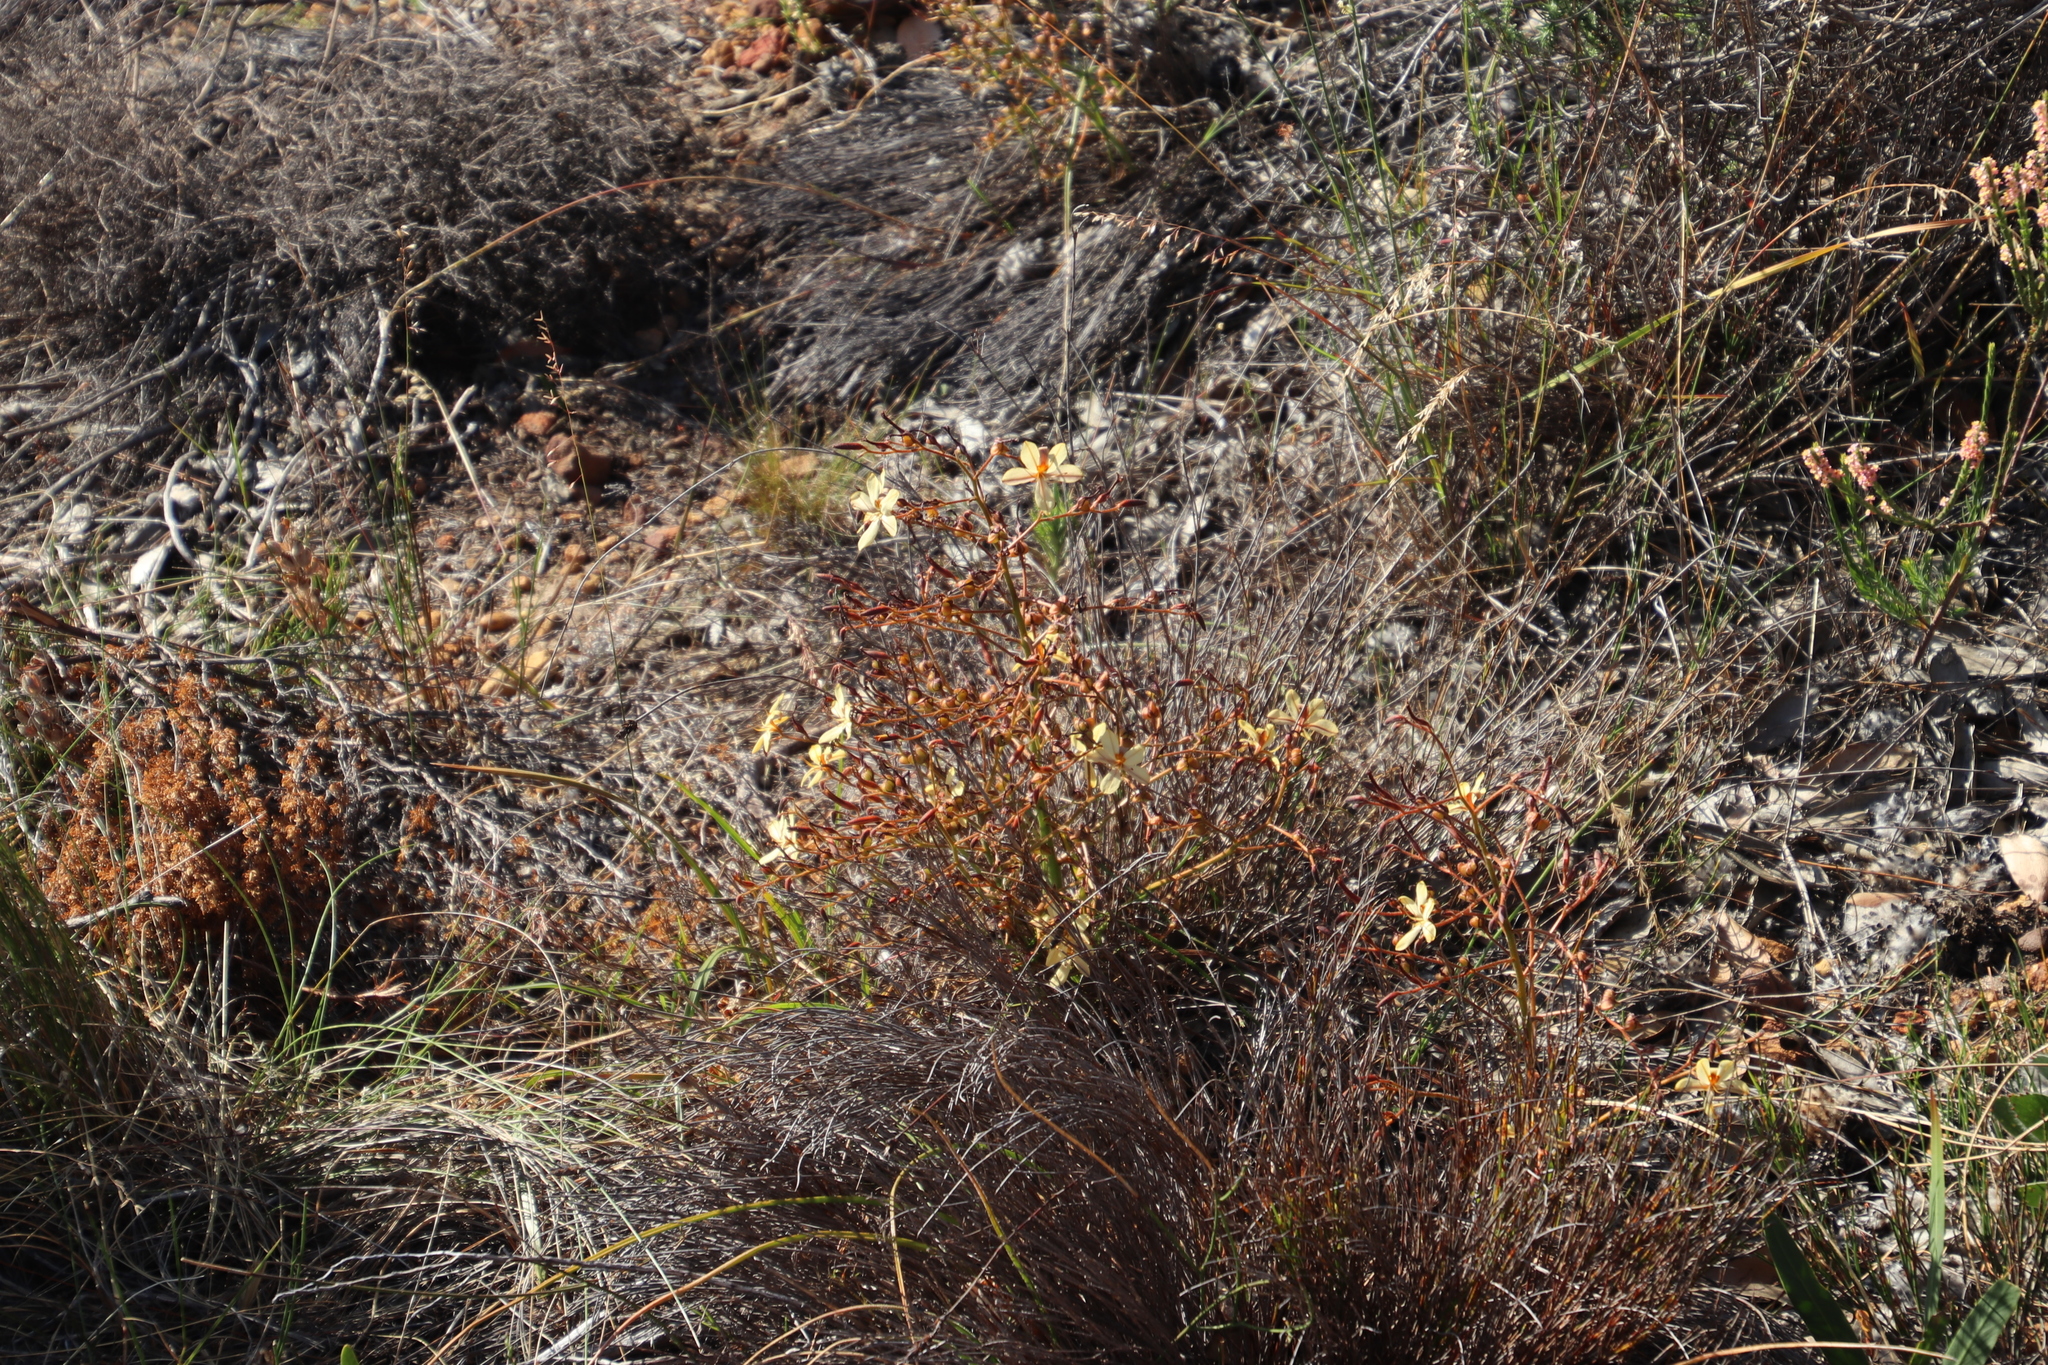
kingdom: Plantae
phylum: Tracheophyta
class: Liliopsida
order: Commelinales
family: Haemodoraceae
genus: Wachendorfia
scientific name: Wachendorfia paniculata
